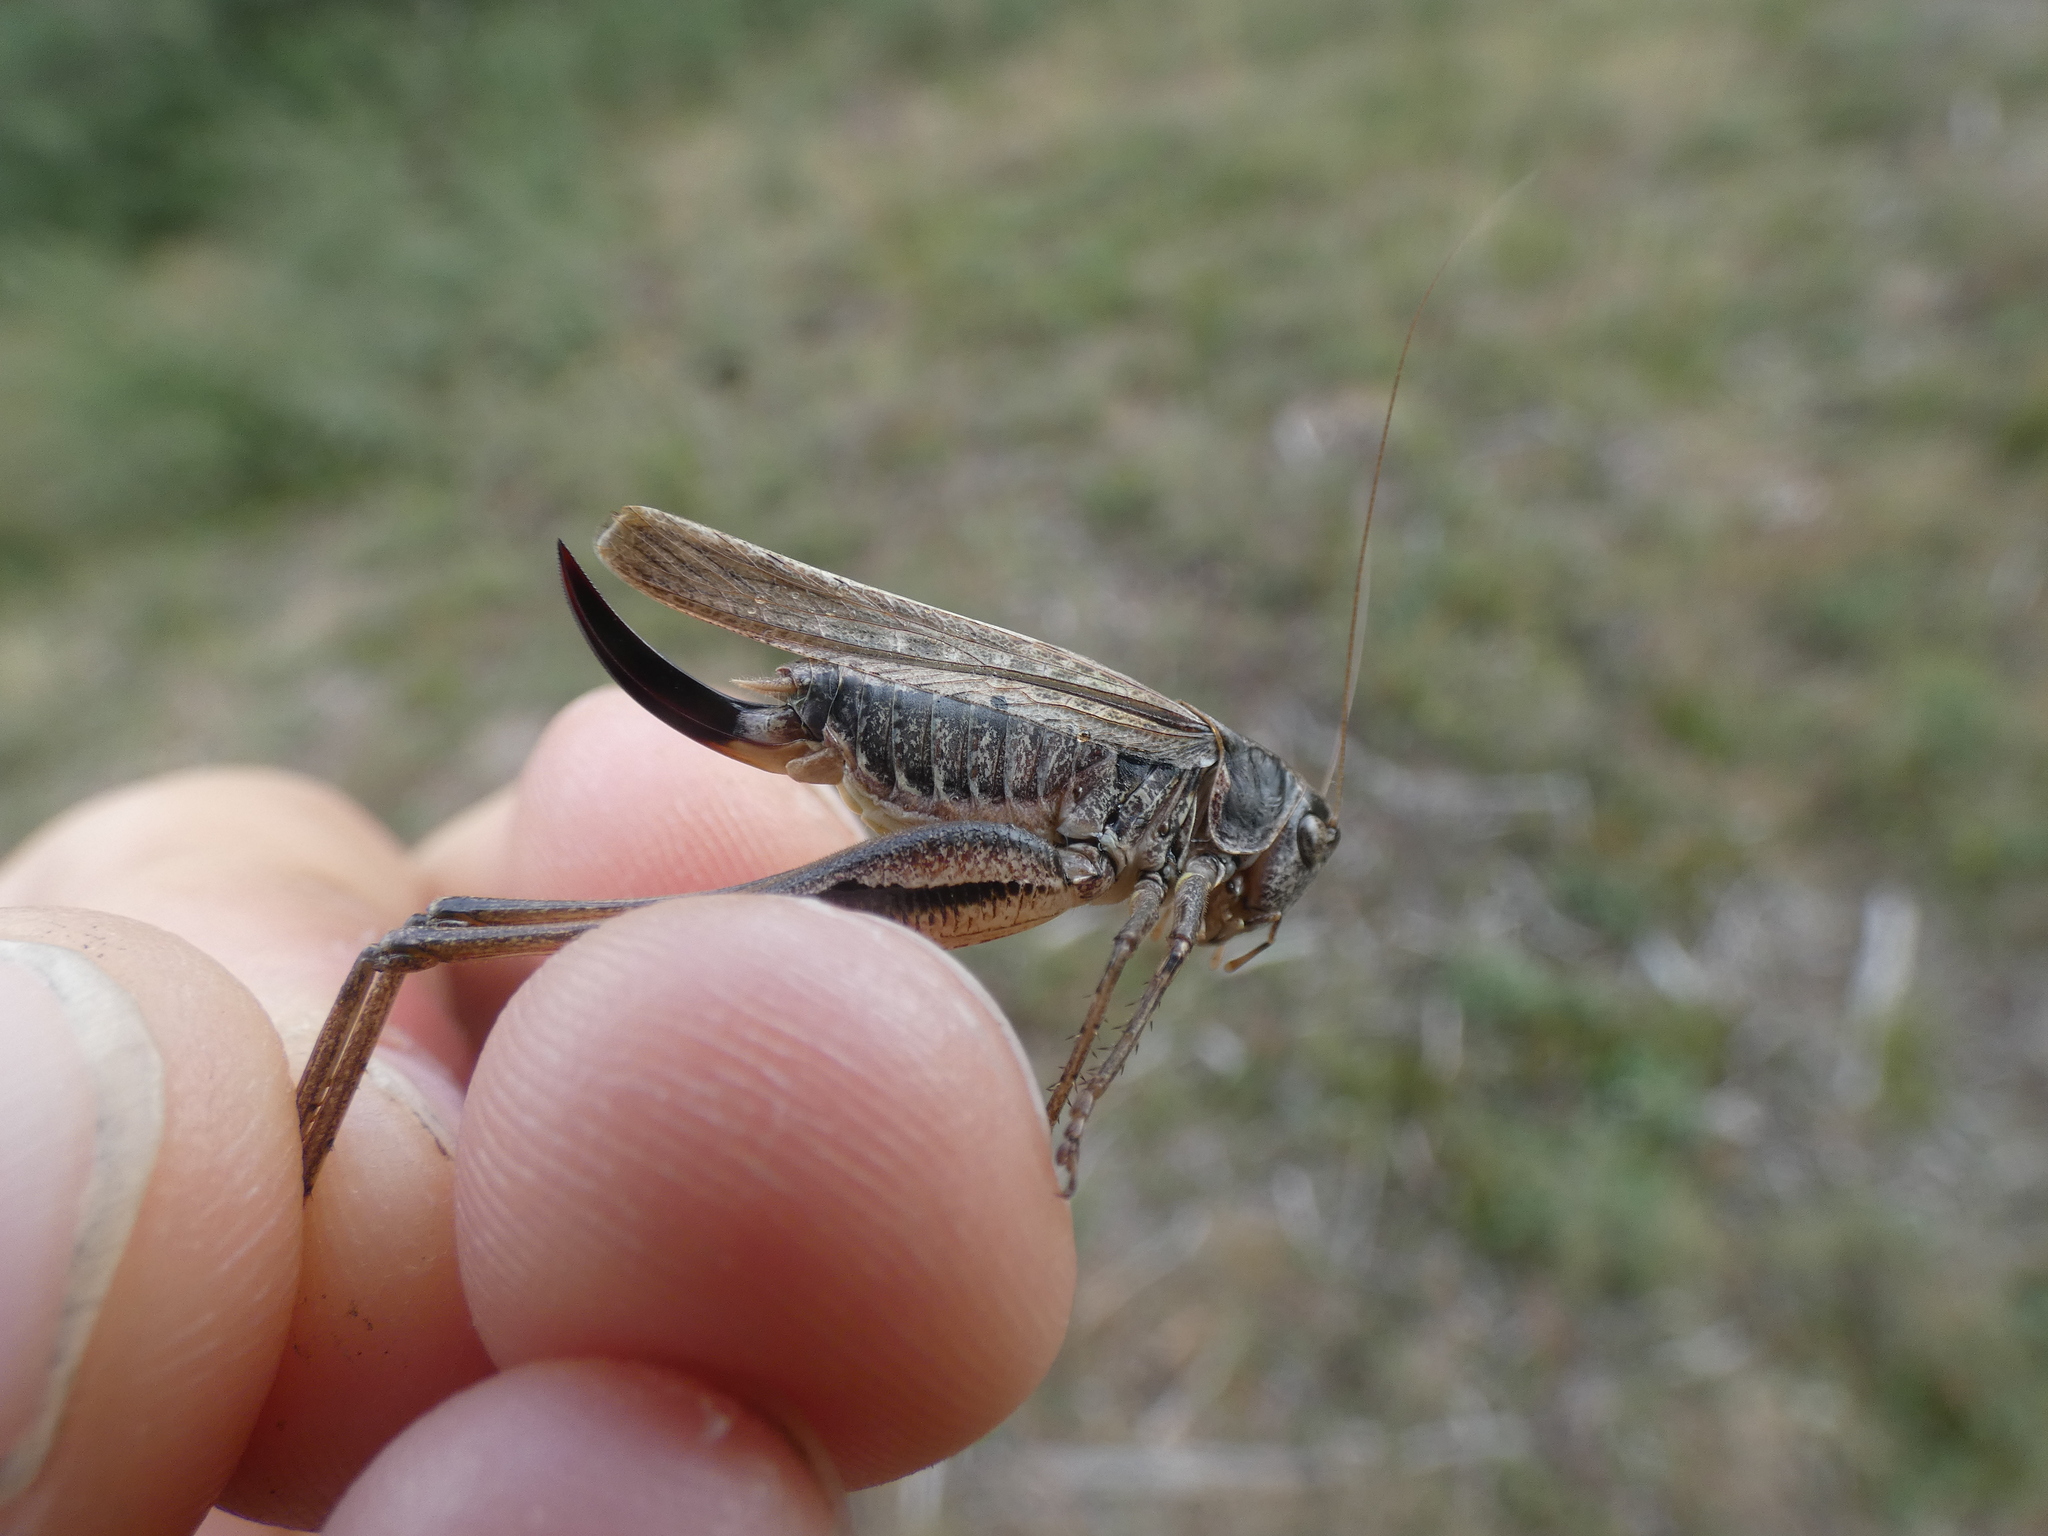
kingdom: Animalia
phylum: Arthropoda
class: Insecta
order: Orthoptera
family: Tettigoniidae
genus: Platycleis
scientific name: Platycleis albopunctata
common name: Grey bush-cricket
